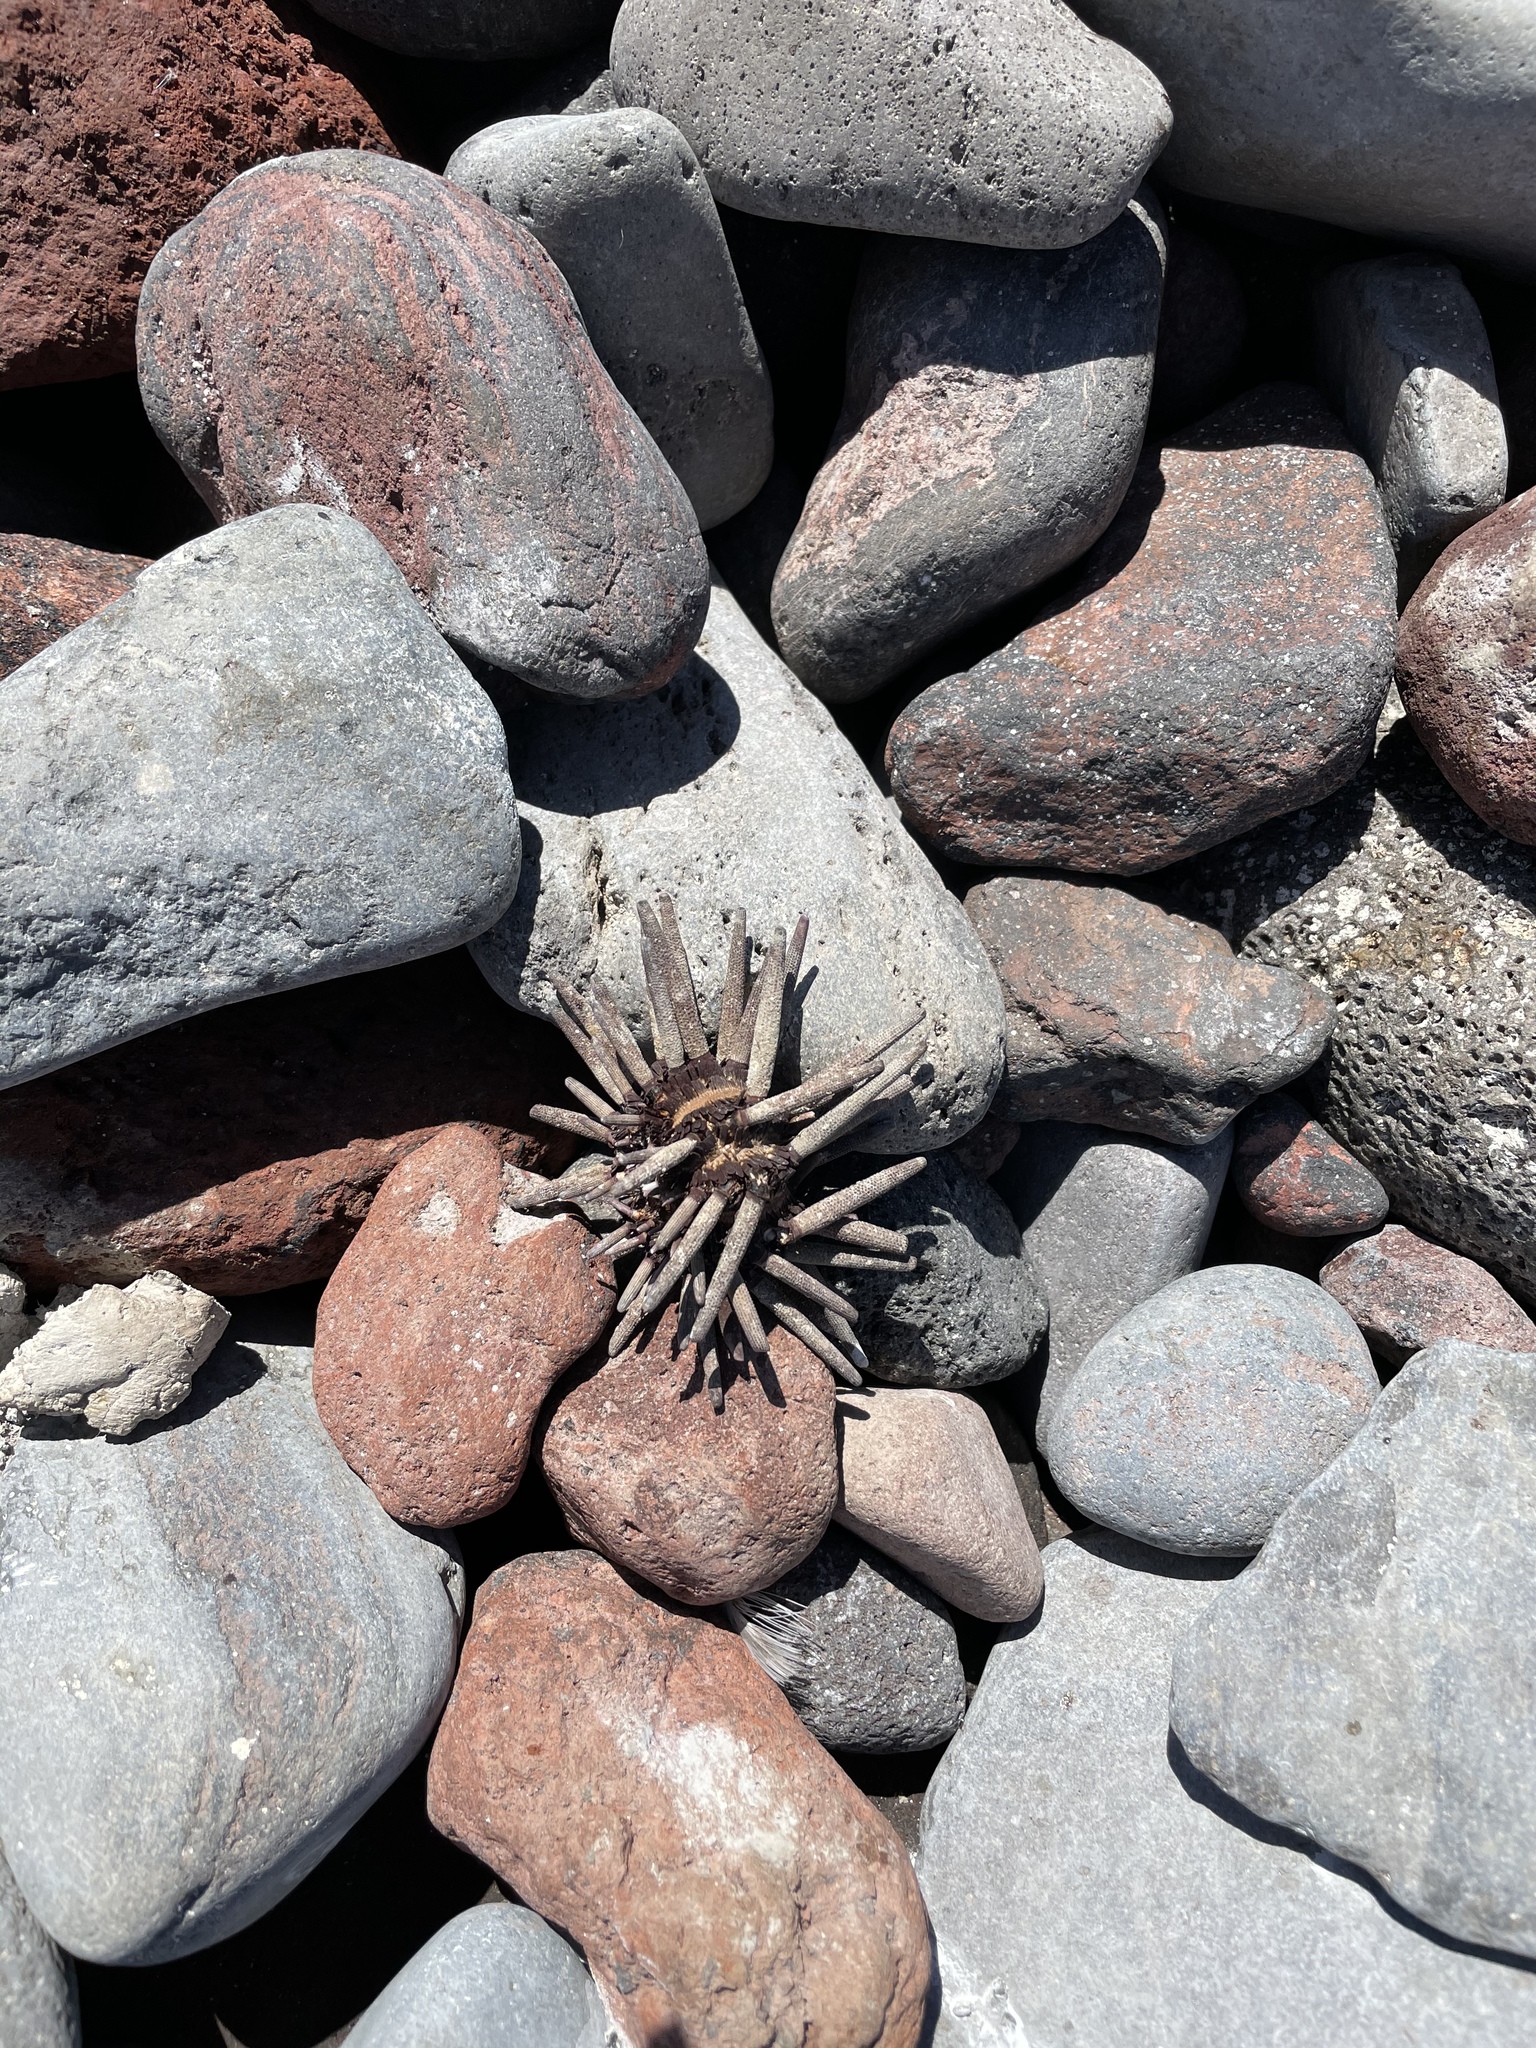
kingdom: Animalia
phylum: Echinodermata
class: Echinoidea
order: Cidaroida
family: Cidaridae
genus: Eucidaris
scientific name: Eucidaris thouarsii
